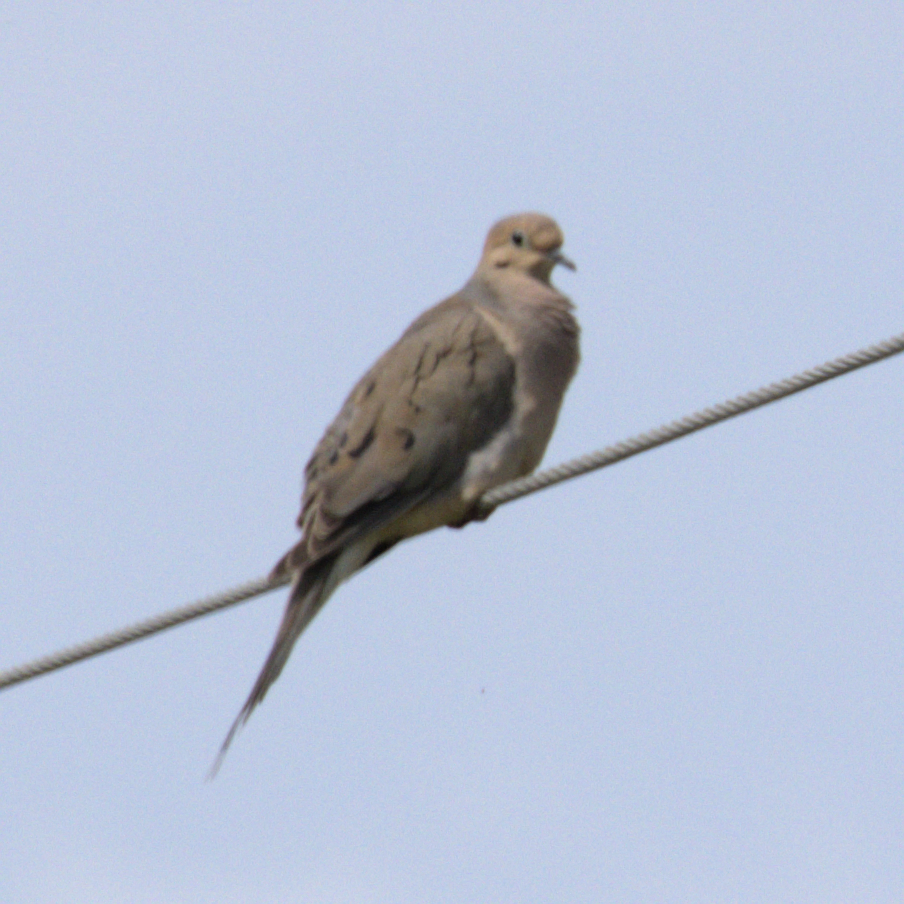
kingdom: Animalia
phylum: Chordata
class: Aves
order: Columbiformes
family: Columbidae
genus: Zenaida
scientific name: Zenaida macroura
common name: Mourning dove
